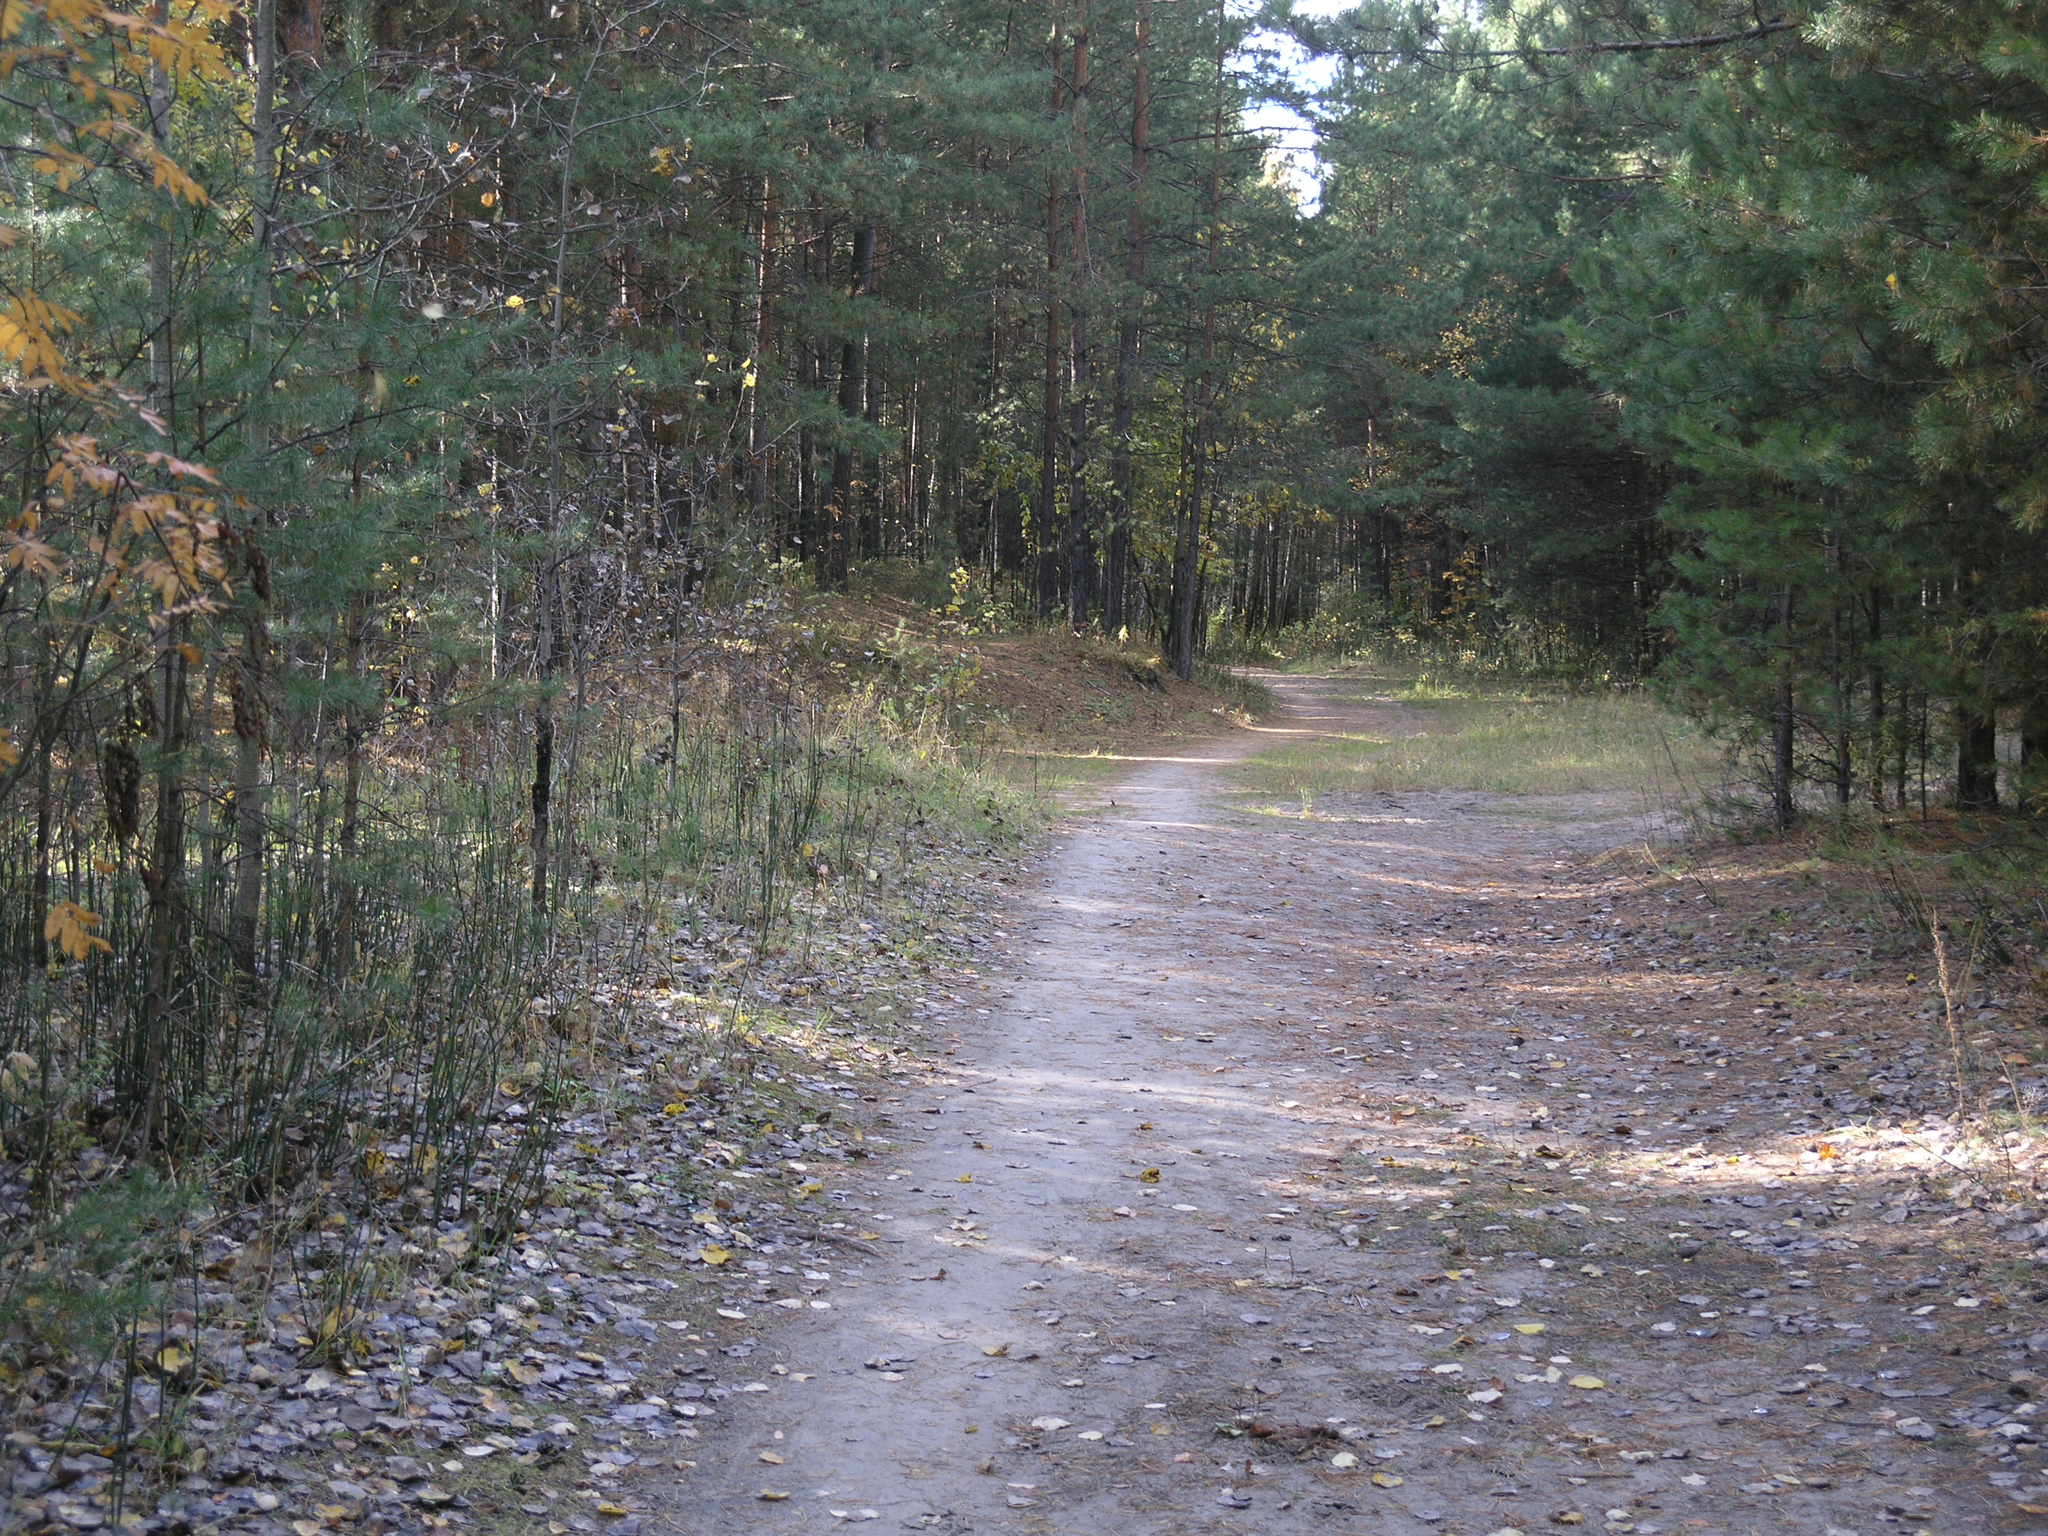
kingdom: Plantae
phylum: Tracheophyta
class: Pinopsida
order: Pinales
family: Pinaceae
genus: Pinus
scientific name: Pinus sylvestris
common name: Scots pine
